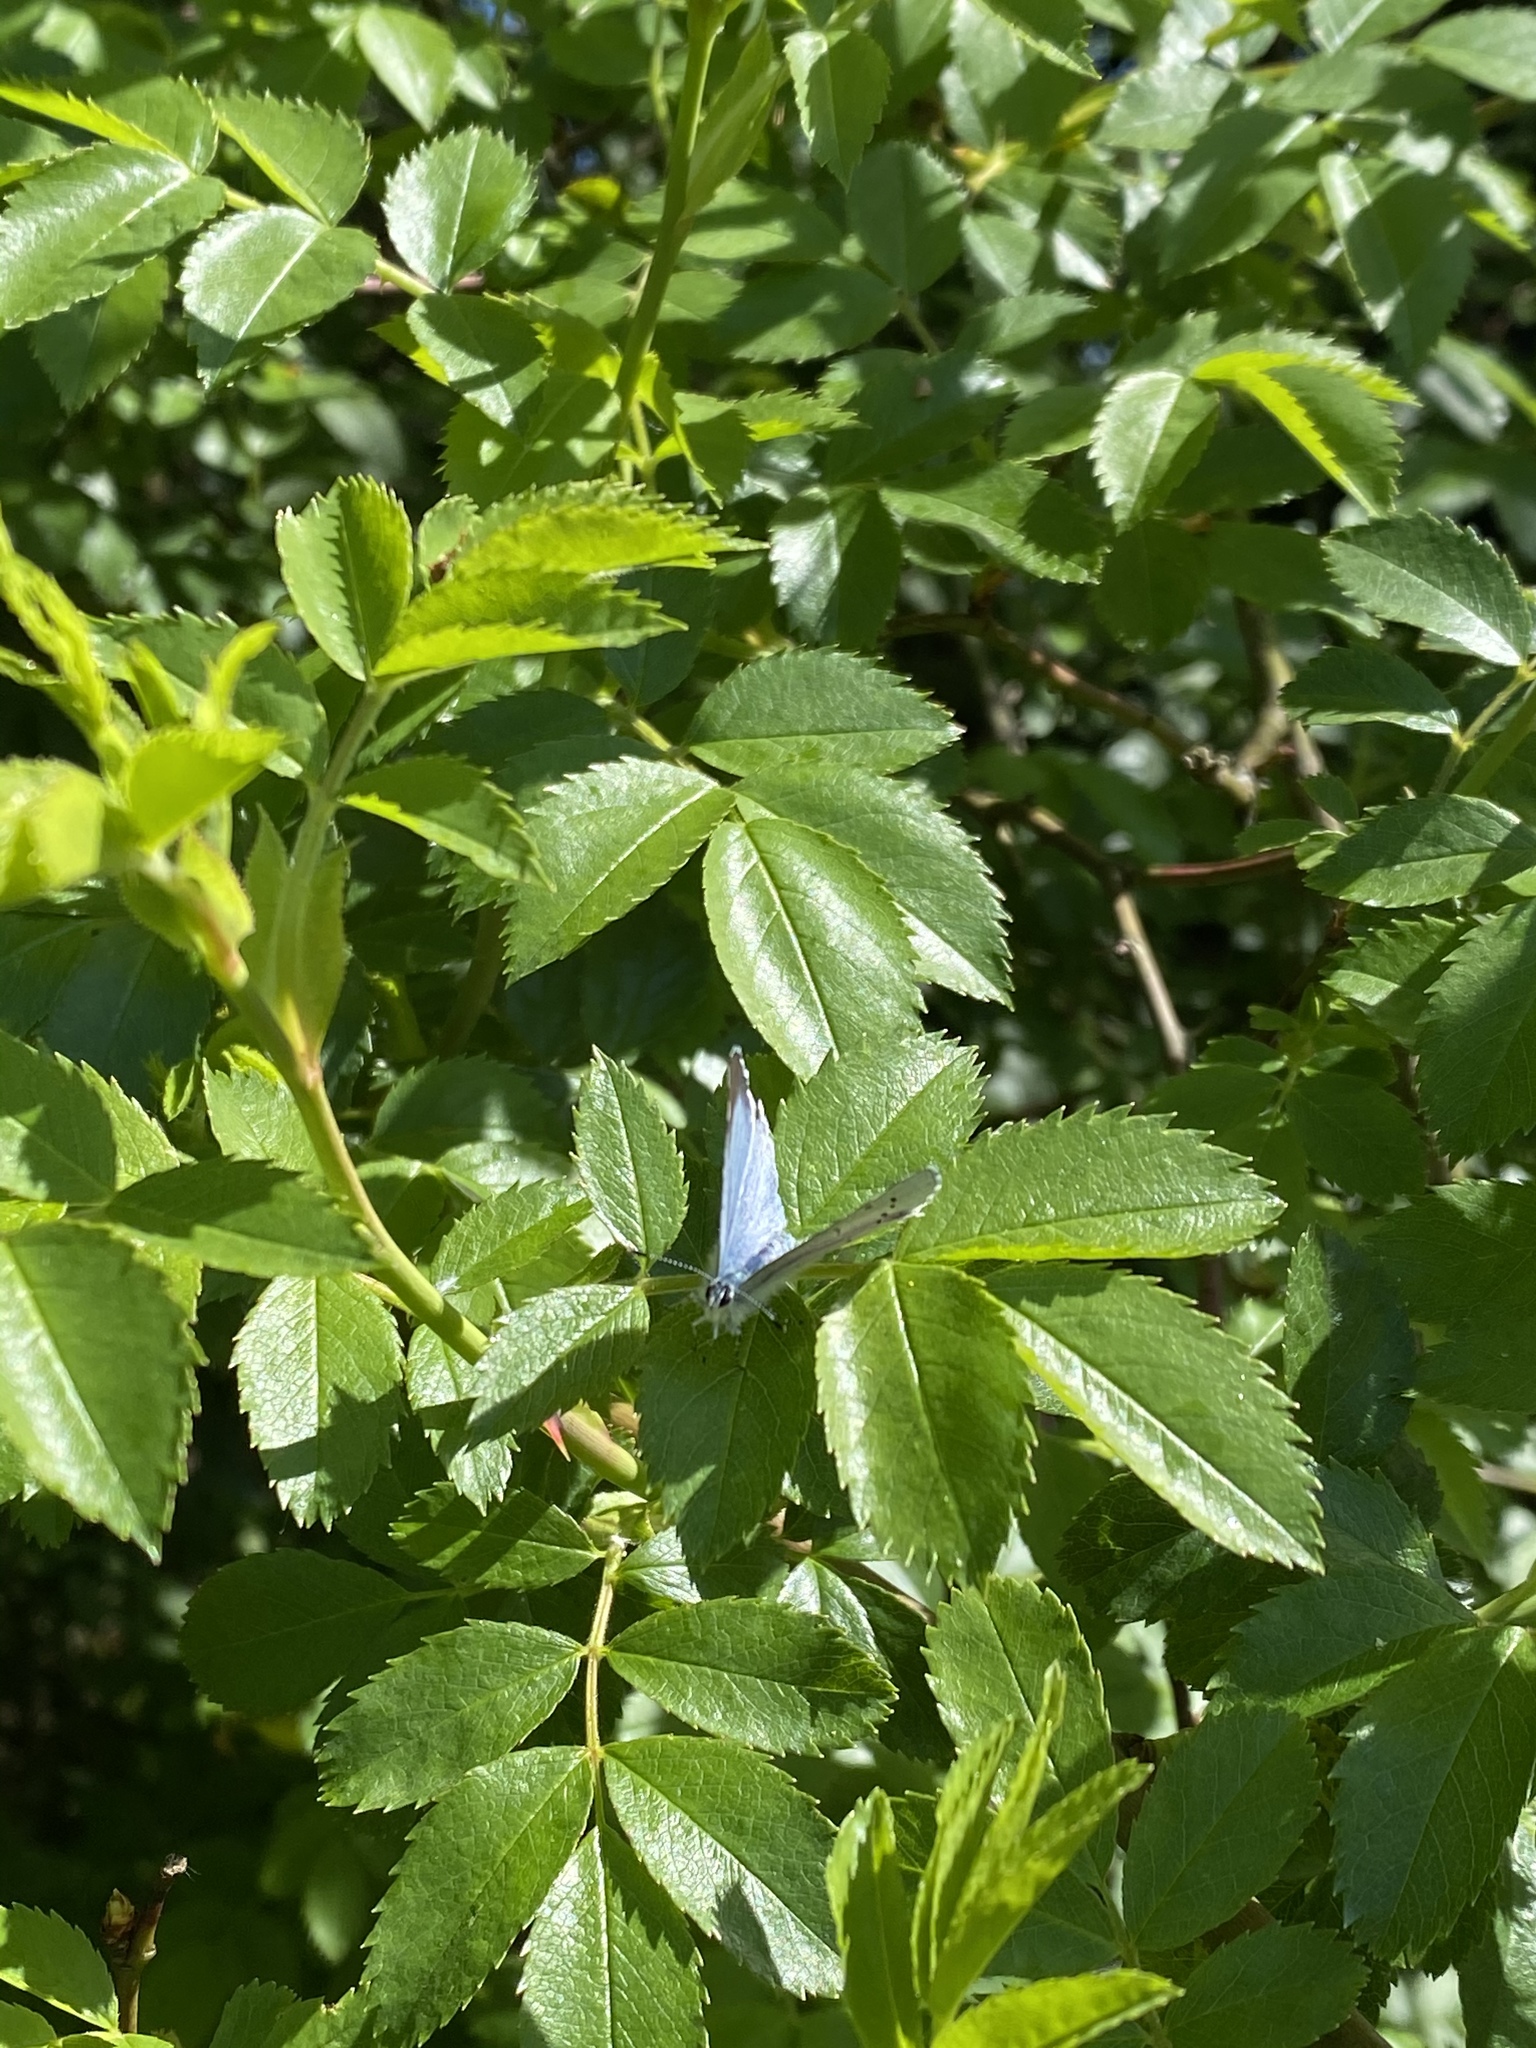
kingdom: Animalia
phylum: Arthropoda
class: Insecta
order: Lepidoptera
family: Lycaenidae
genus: Celastrina
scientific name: Celastrina argiolus
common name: Holly blue
